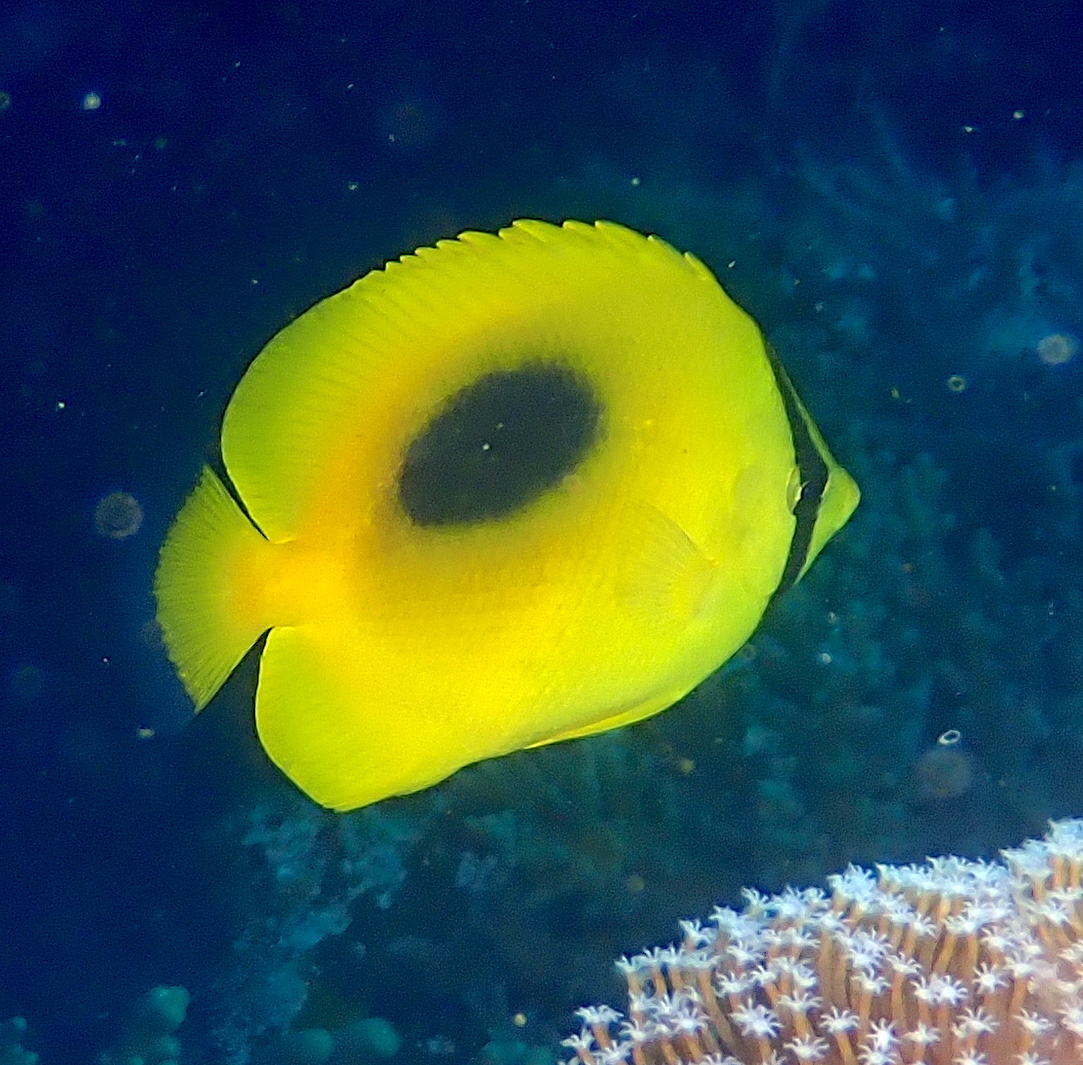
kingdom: Animalia
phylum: Chordata
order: Perciformes
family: Chaetodontidae
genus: Chaetodon
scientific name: Chaetodon speculum
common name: Mirror butterflyfish
